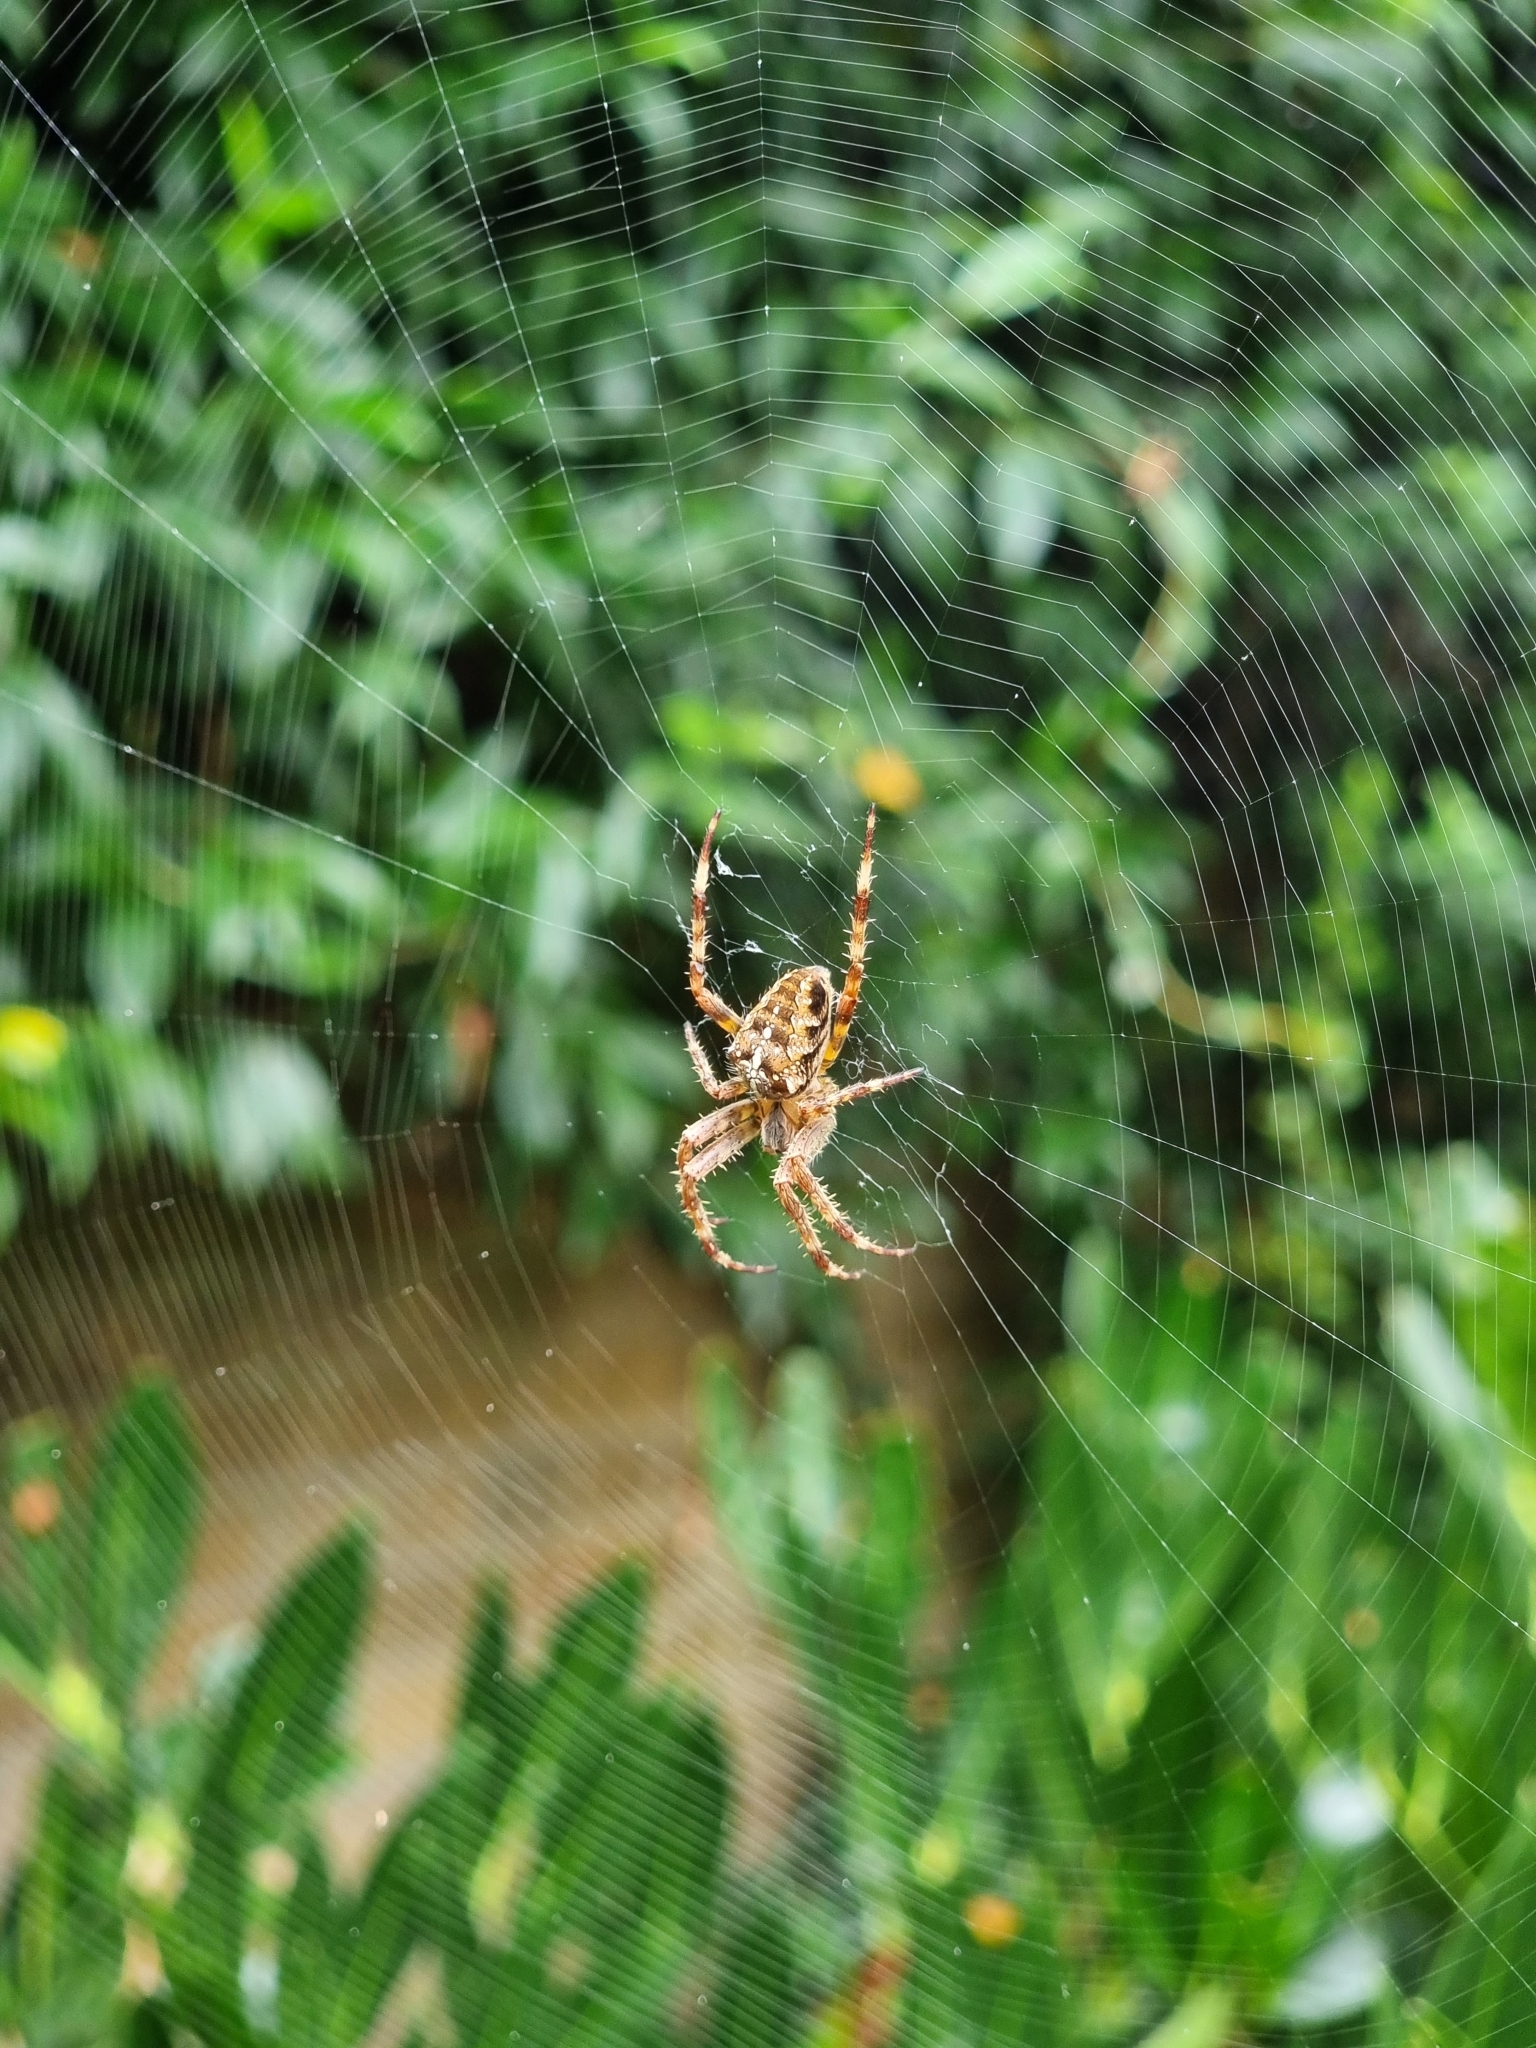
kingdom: Animalia
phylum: Arthropoda
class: Arachnida
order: Araneae
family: Araneidae
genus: Araneus
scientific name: Araneus diadematus
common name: Cross orbweaver
